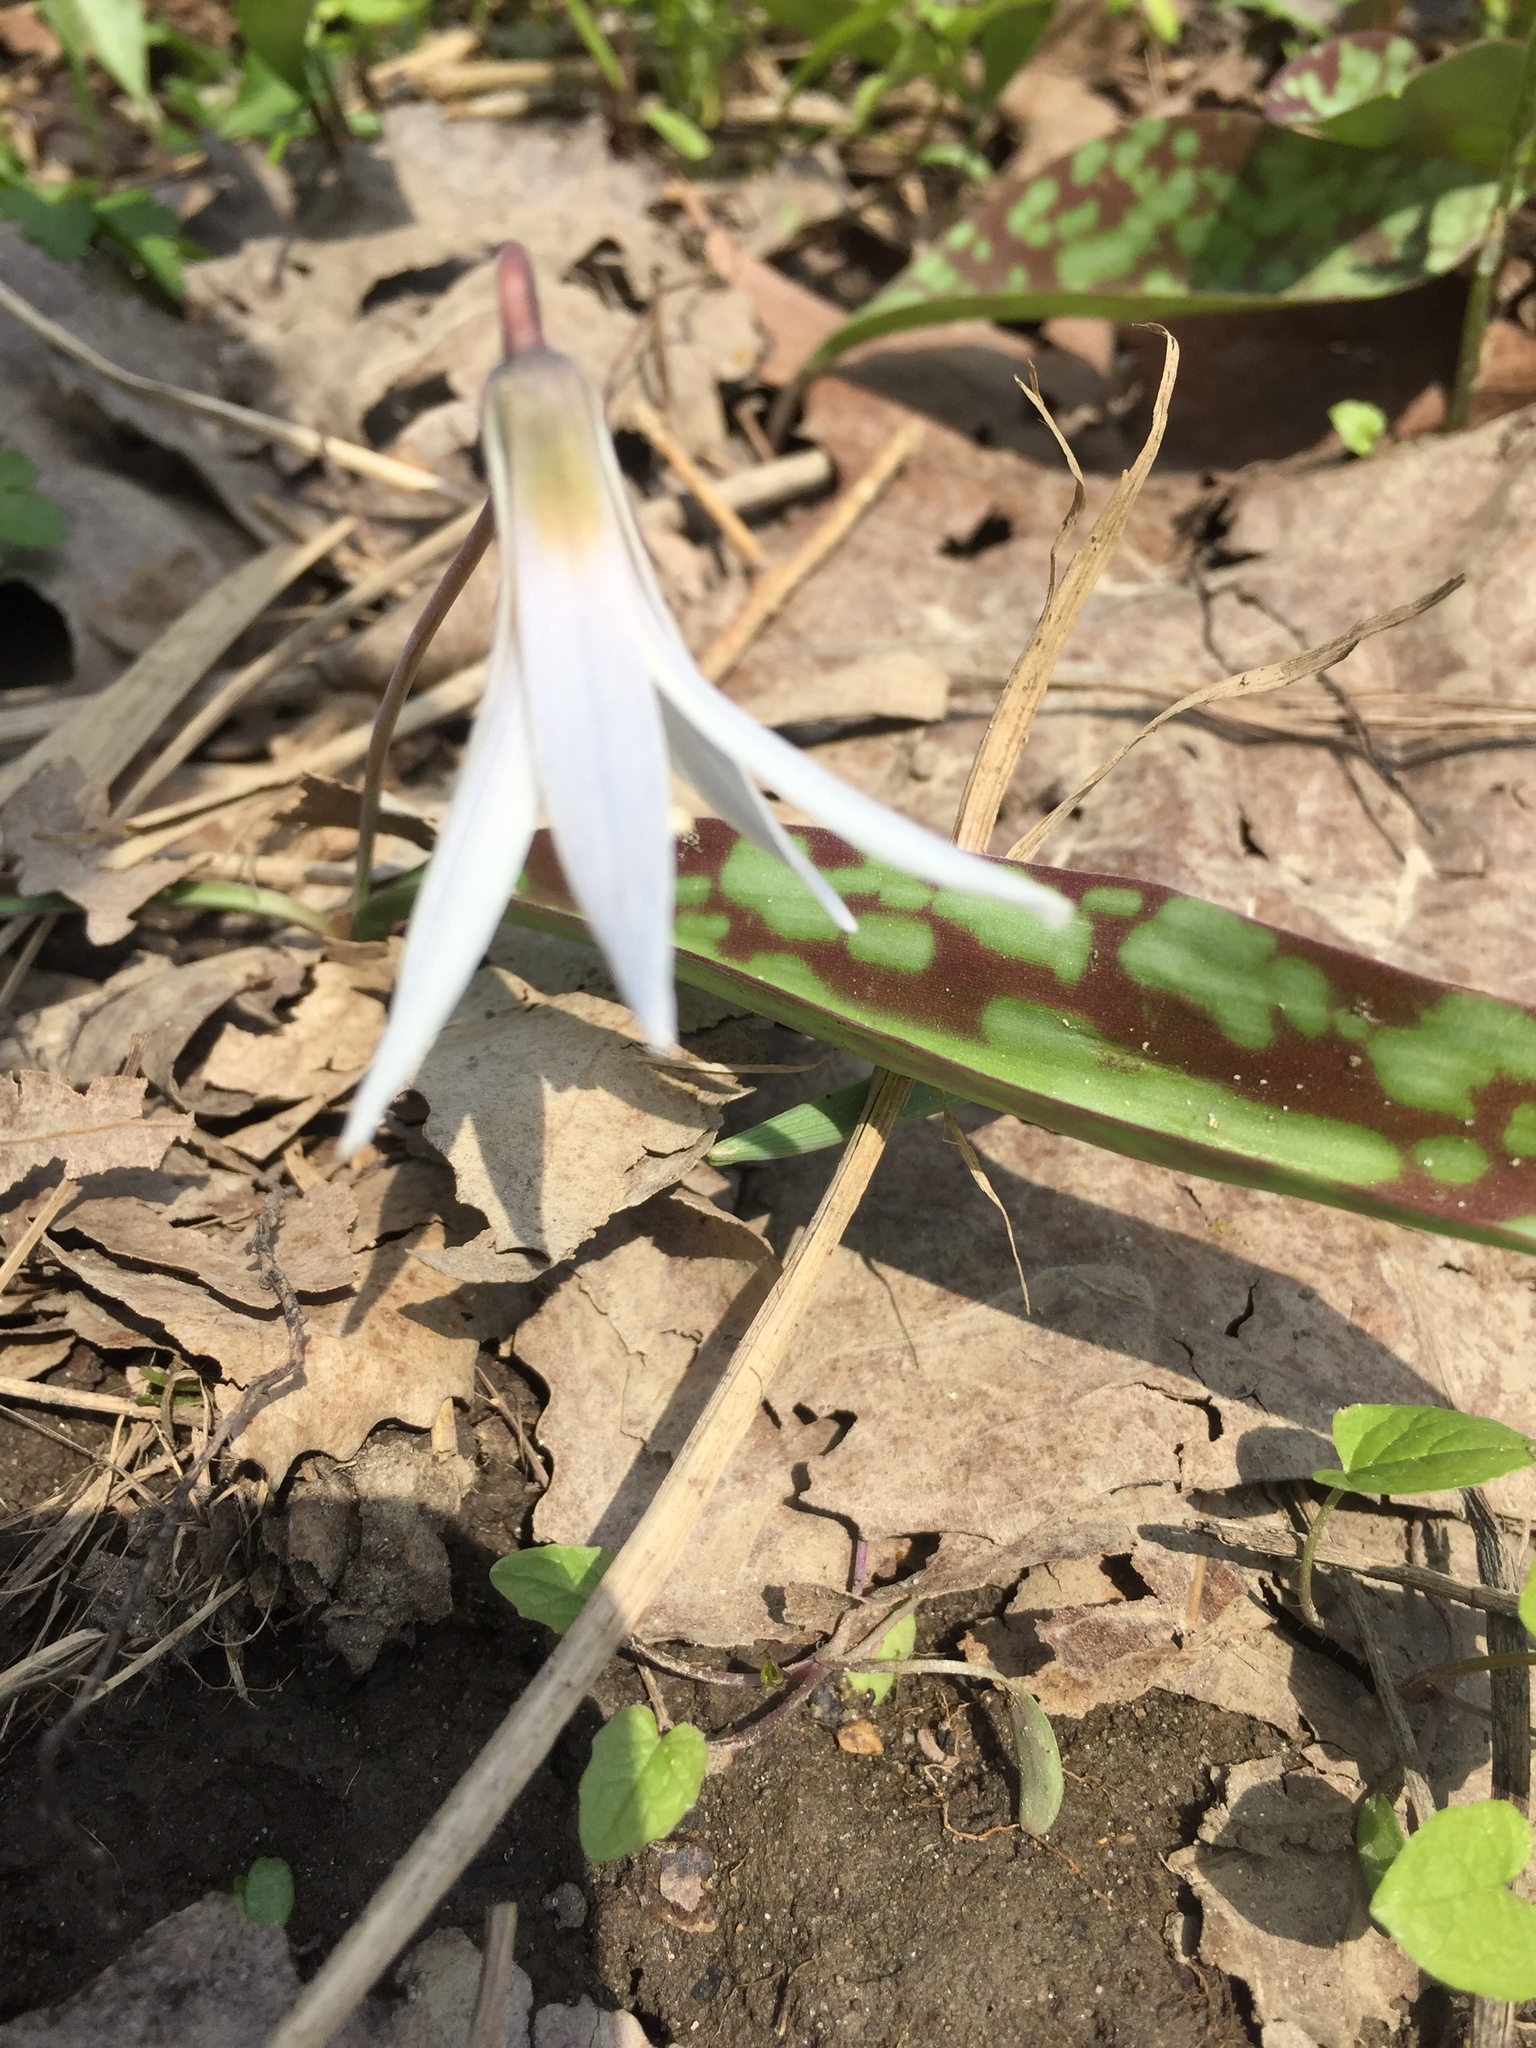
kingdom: Plantae
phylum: Tracheophyta
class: Liliopsida
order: Liliales
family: Liliaceae
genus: Erythronium
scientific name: Erythronium albidum
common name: White trout-lily
